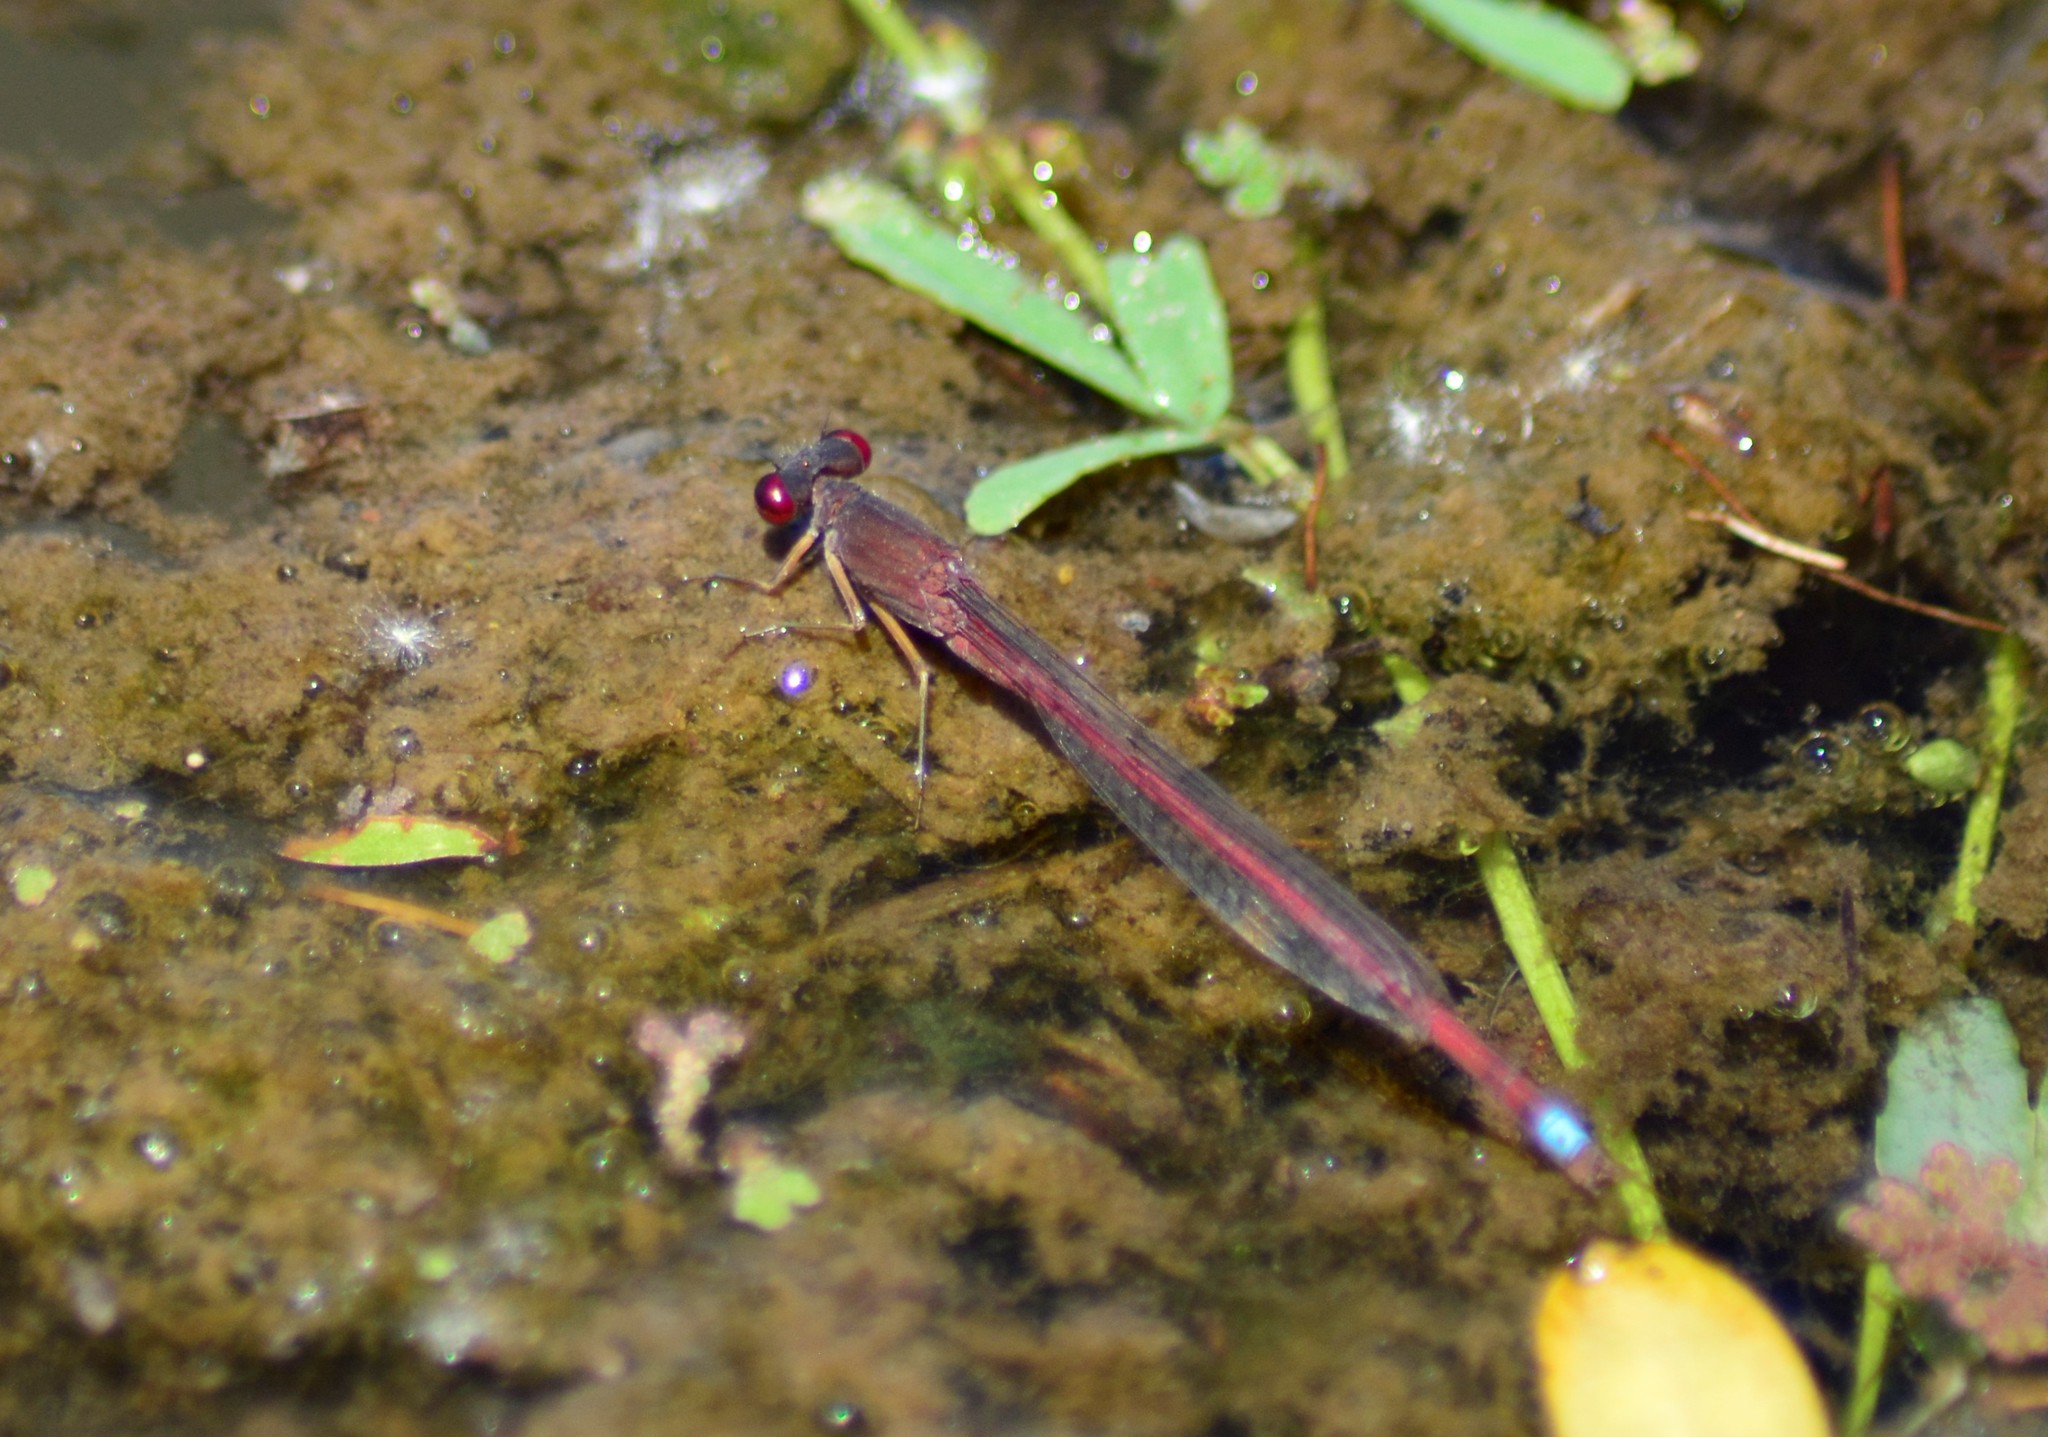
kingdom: Animalia
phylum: Arthropoda
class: Insecta
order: Odonata
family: Coenagrionidae
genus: Oxyagrion
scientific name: Oxyagrion rubidum
